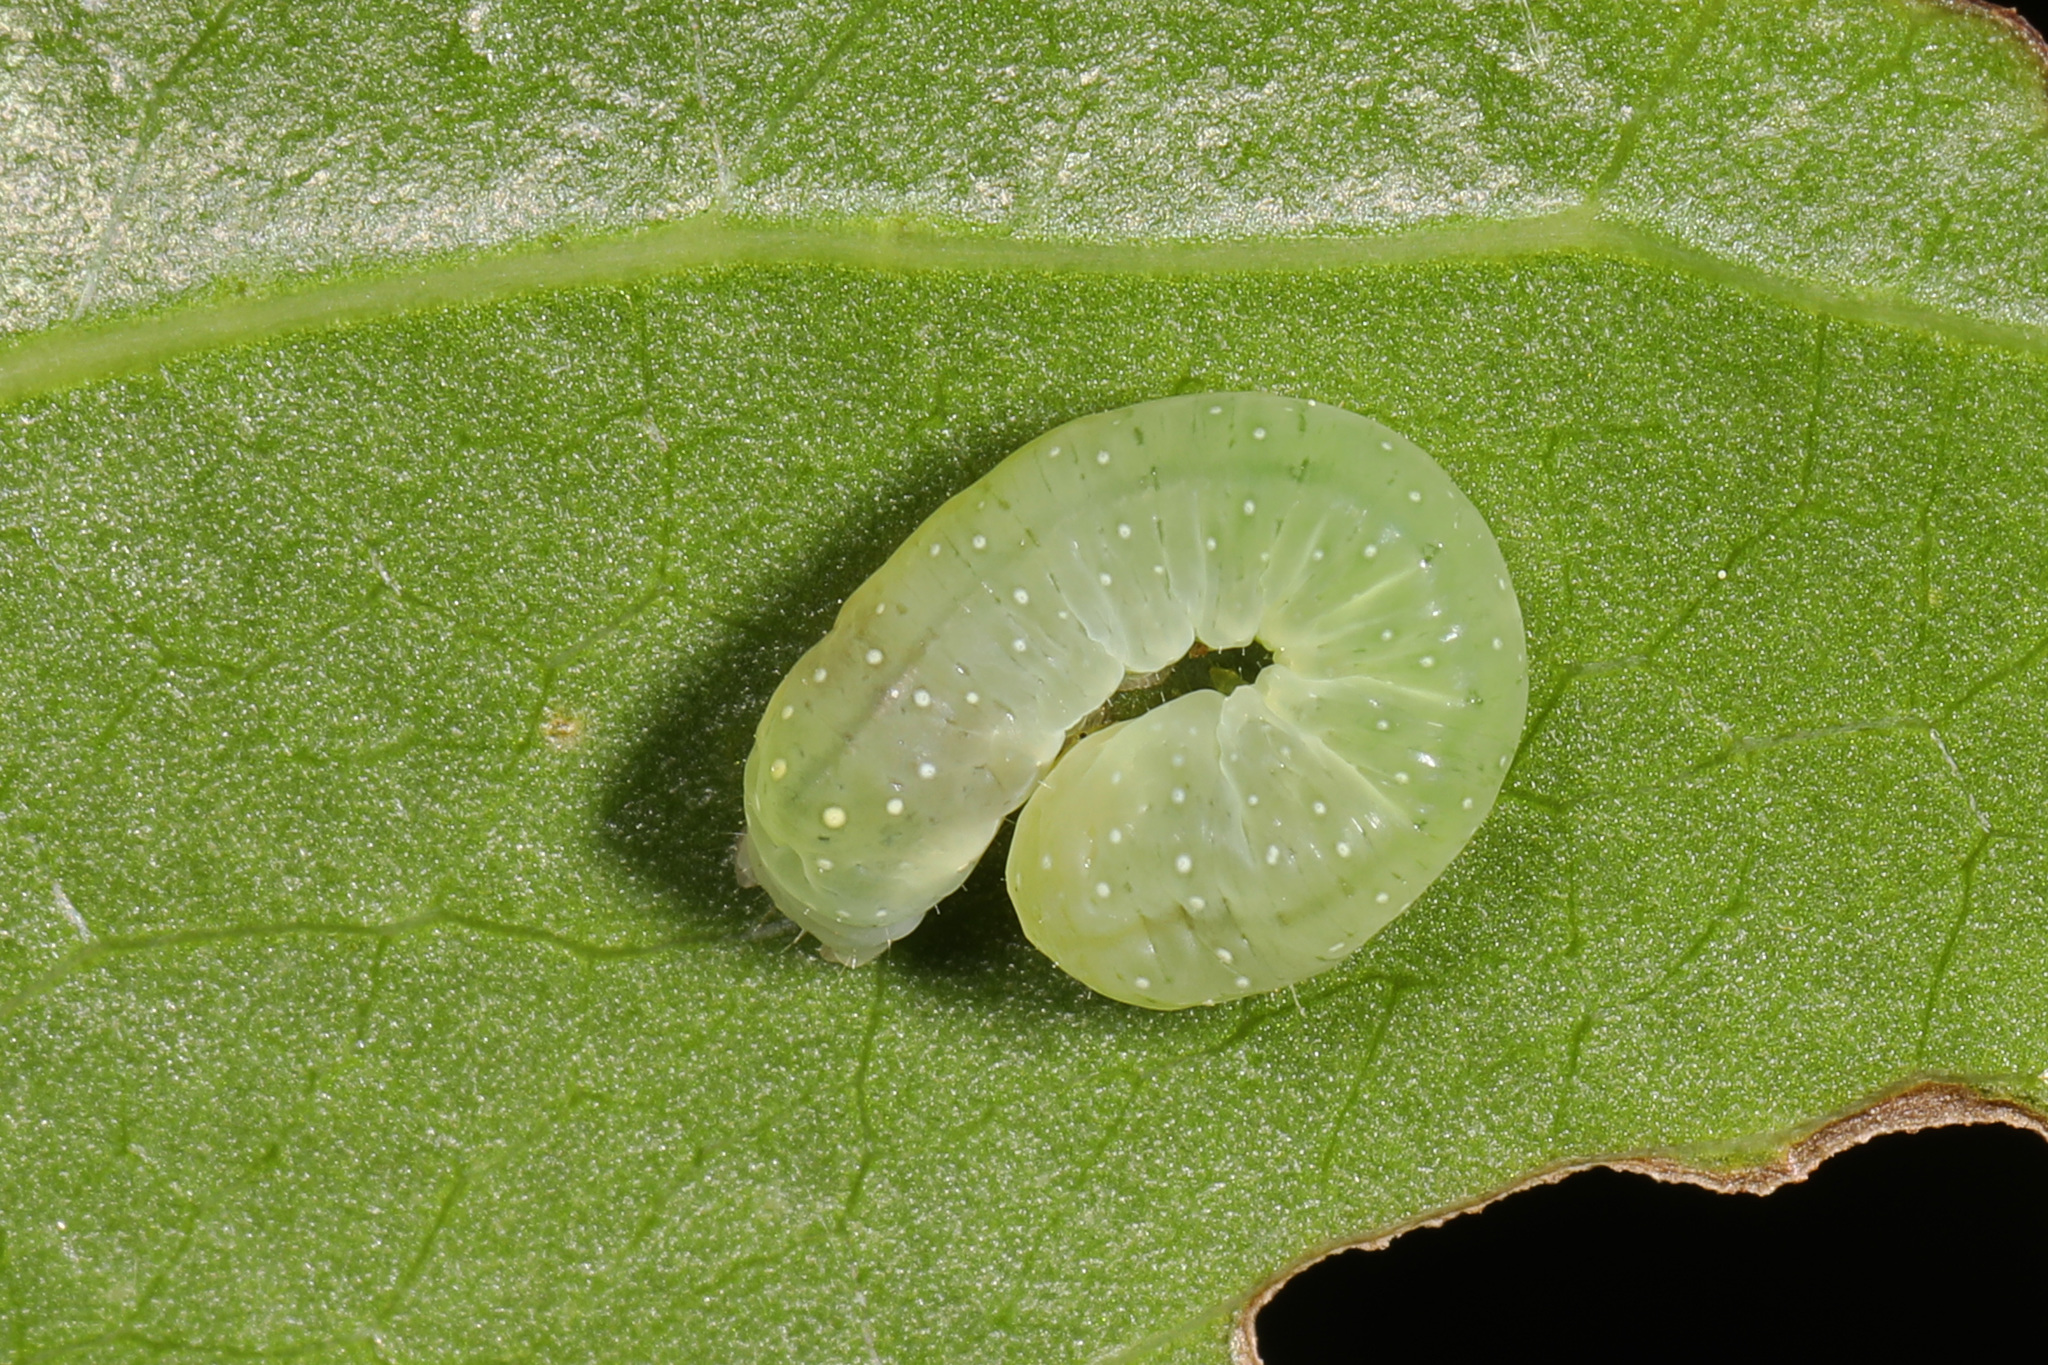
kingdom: Animalia
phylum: Arthropoda
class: Insecta
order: Lepidoptera
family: Noctuidae
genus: Phosphila
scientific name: Phosphila miselioides
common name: Spotted phosphila moth
